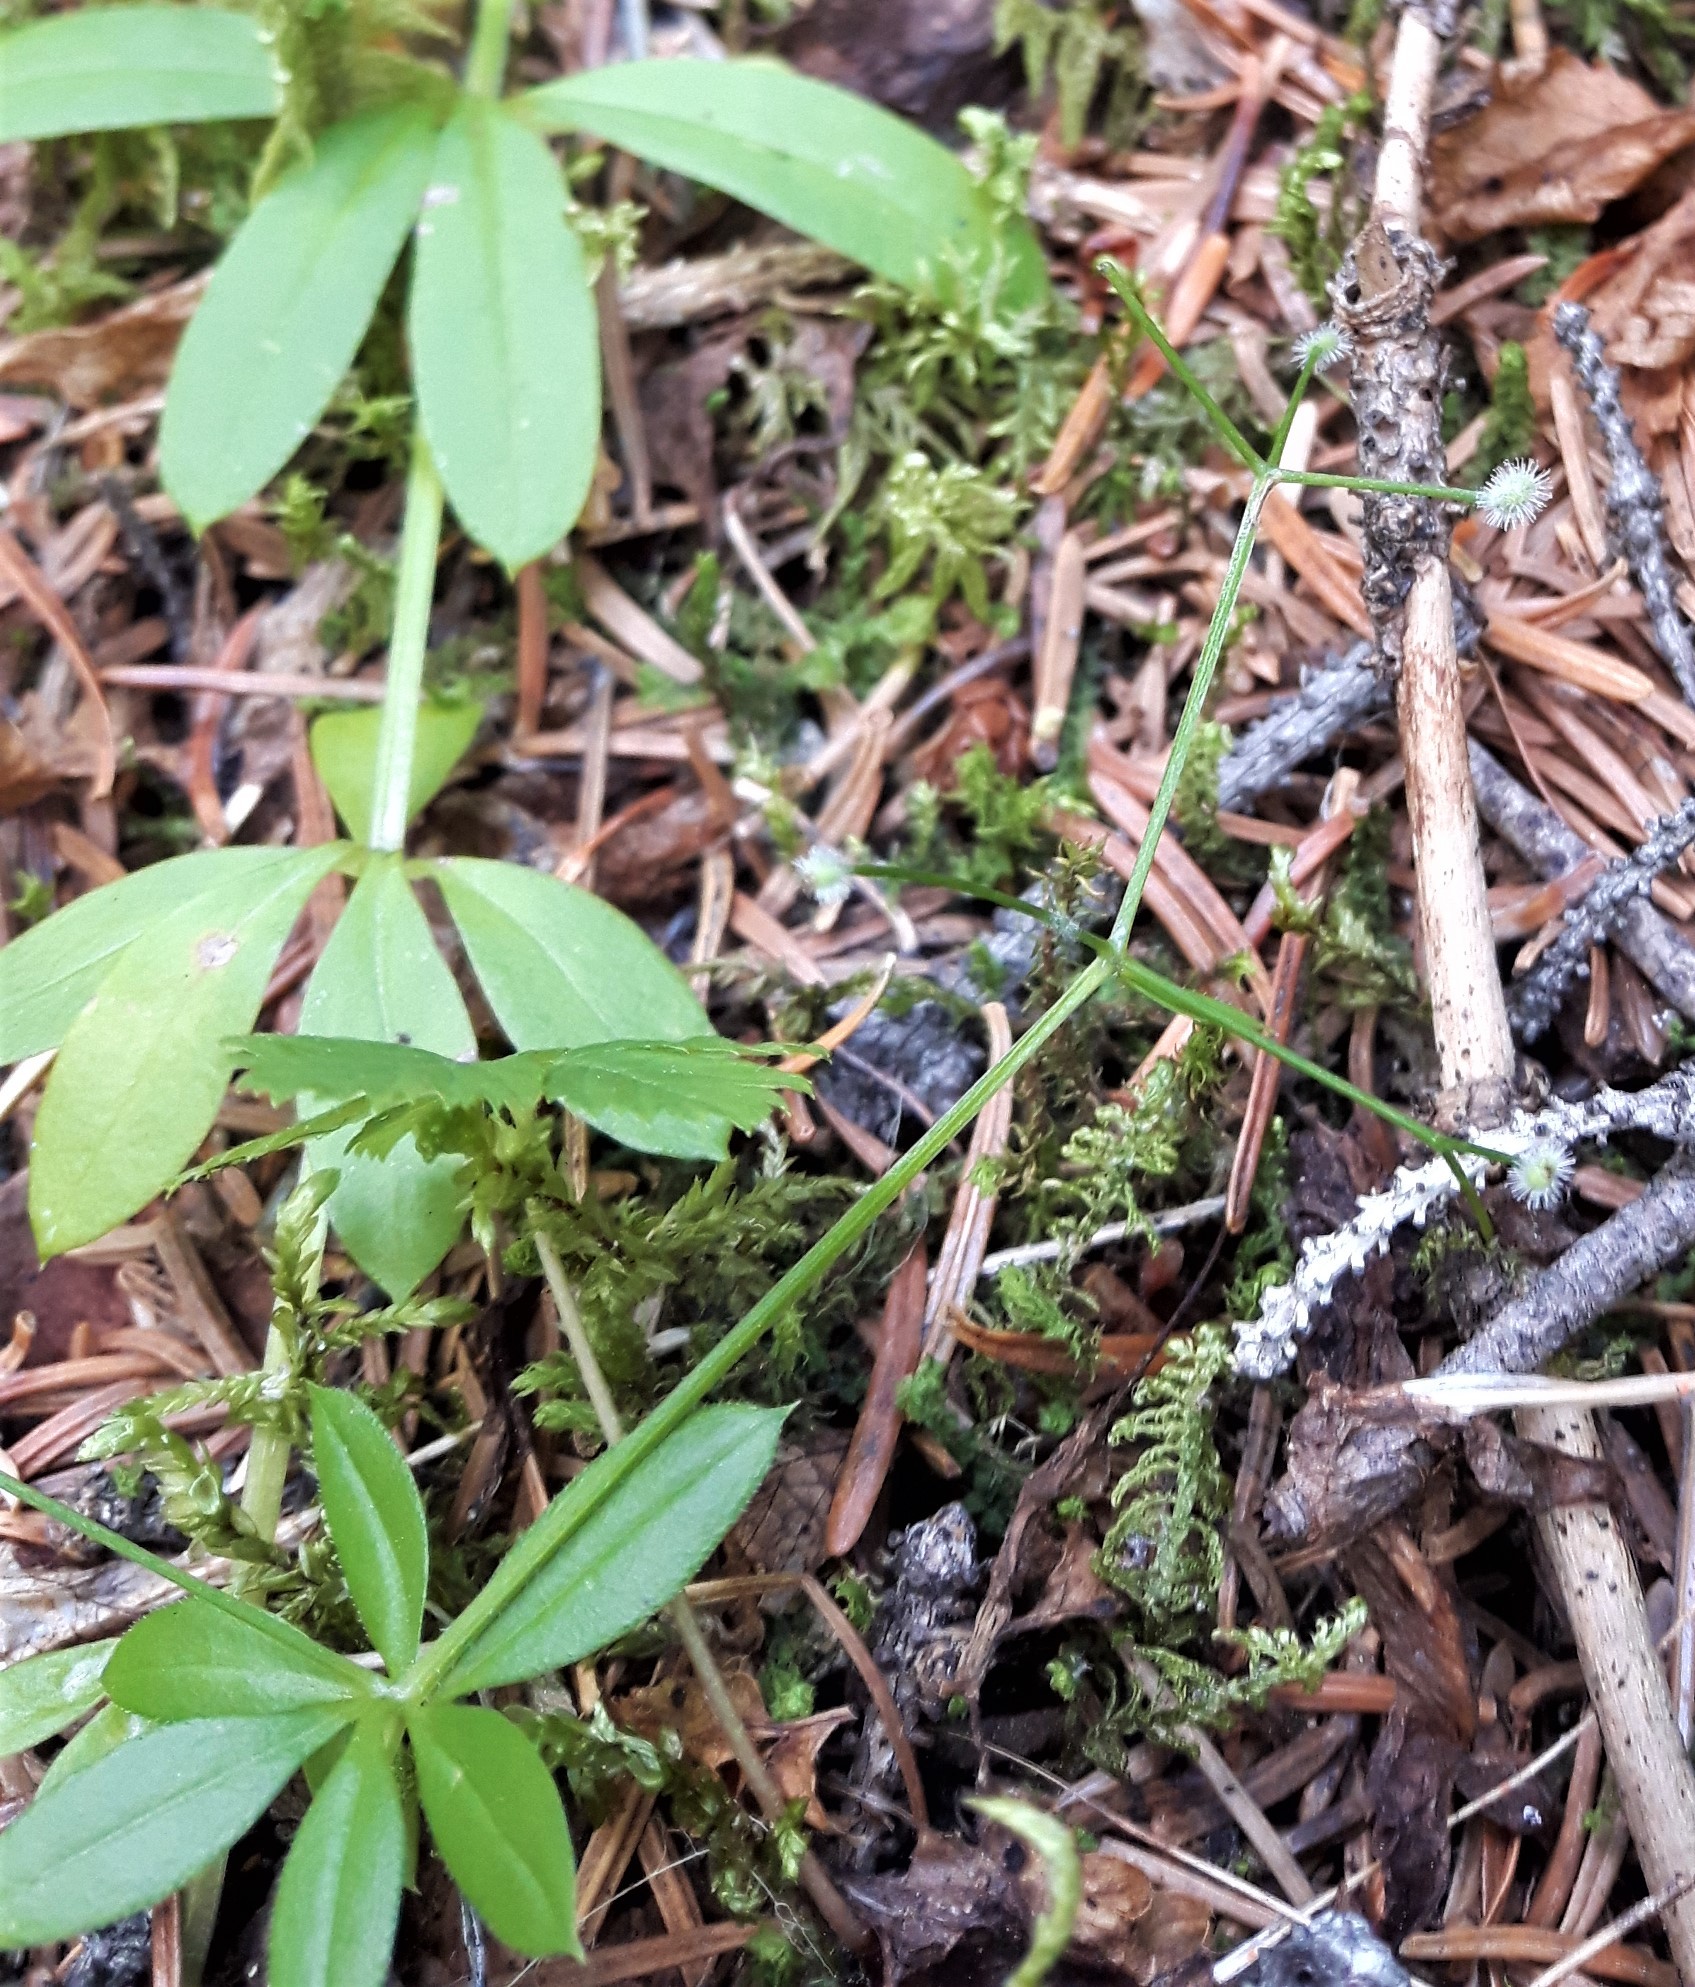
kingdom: Plantae
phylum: Tracheophyta
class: Magnoliopsida
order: Gentianales
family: Rubiaceae
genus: Galium
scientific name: Galium triflorum
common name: Fragrant bedstraw
